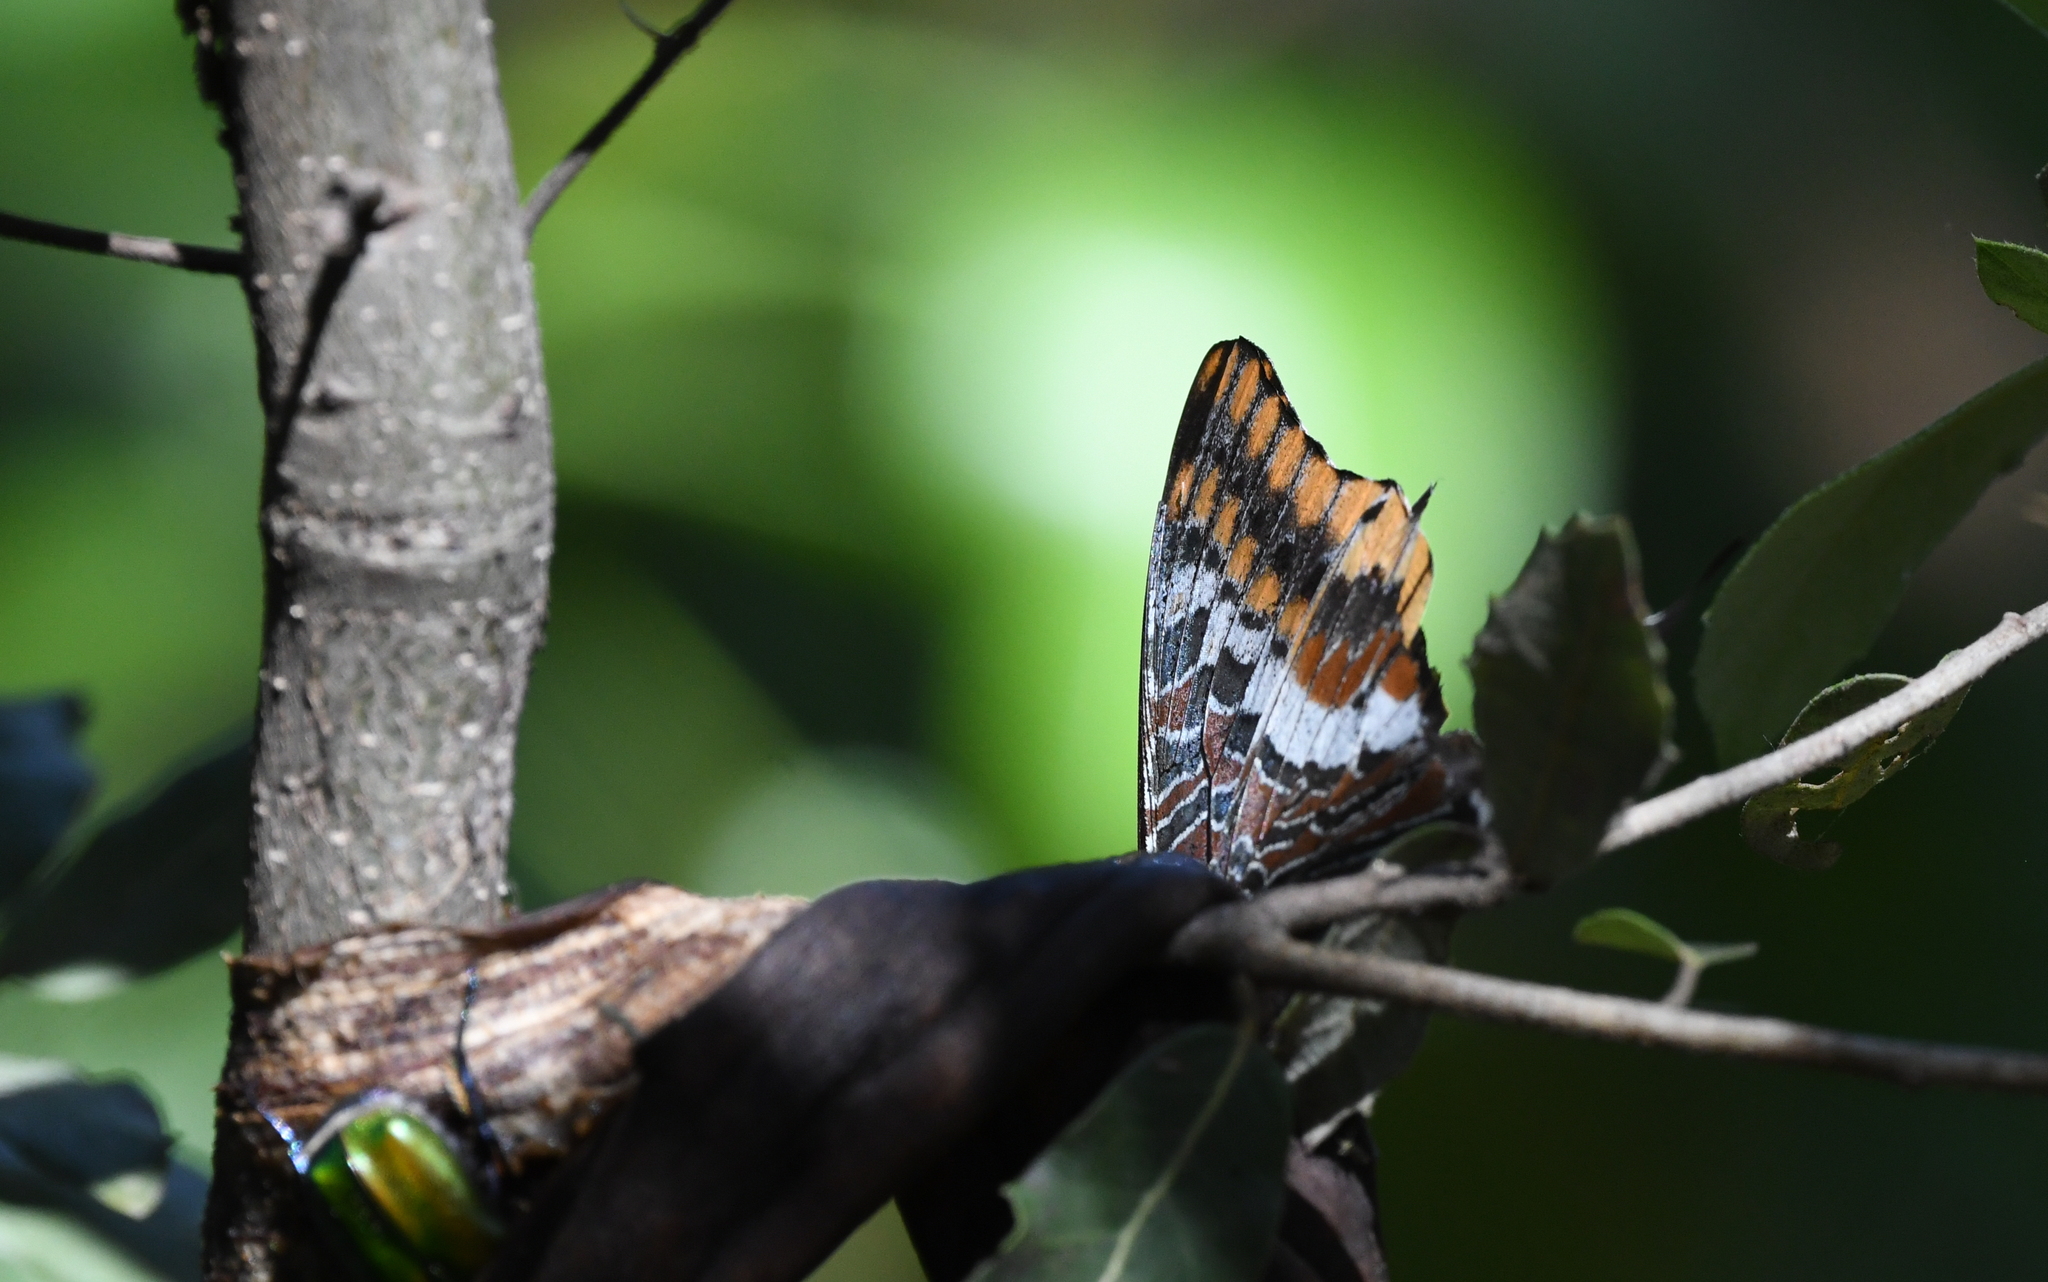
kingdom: Animalia
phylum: Arthropoda
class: Insecta
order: Lepidoptera
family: Nymphalidae
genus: Charaxes
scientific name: Charaxes jasius
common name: Two tailed pasha
